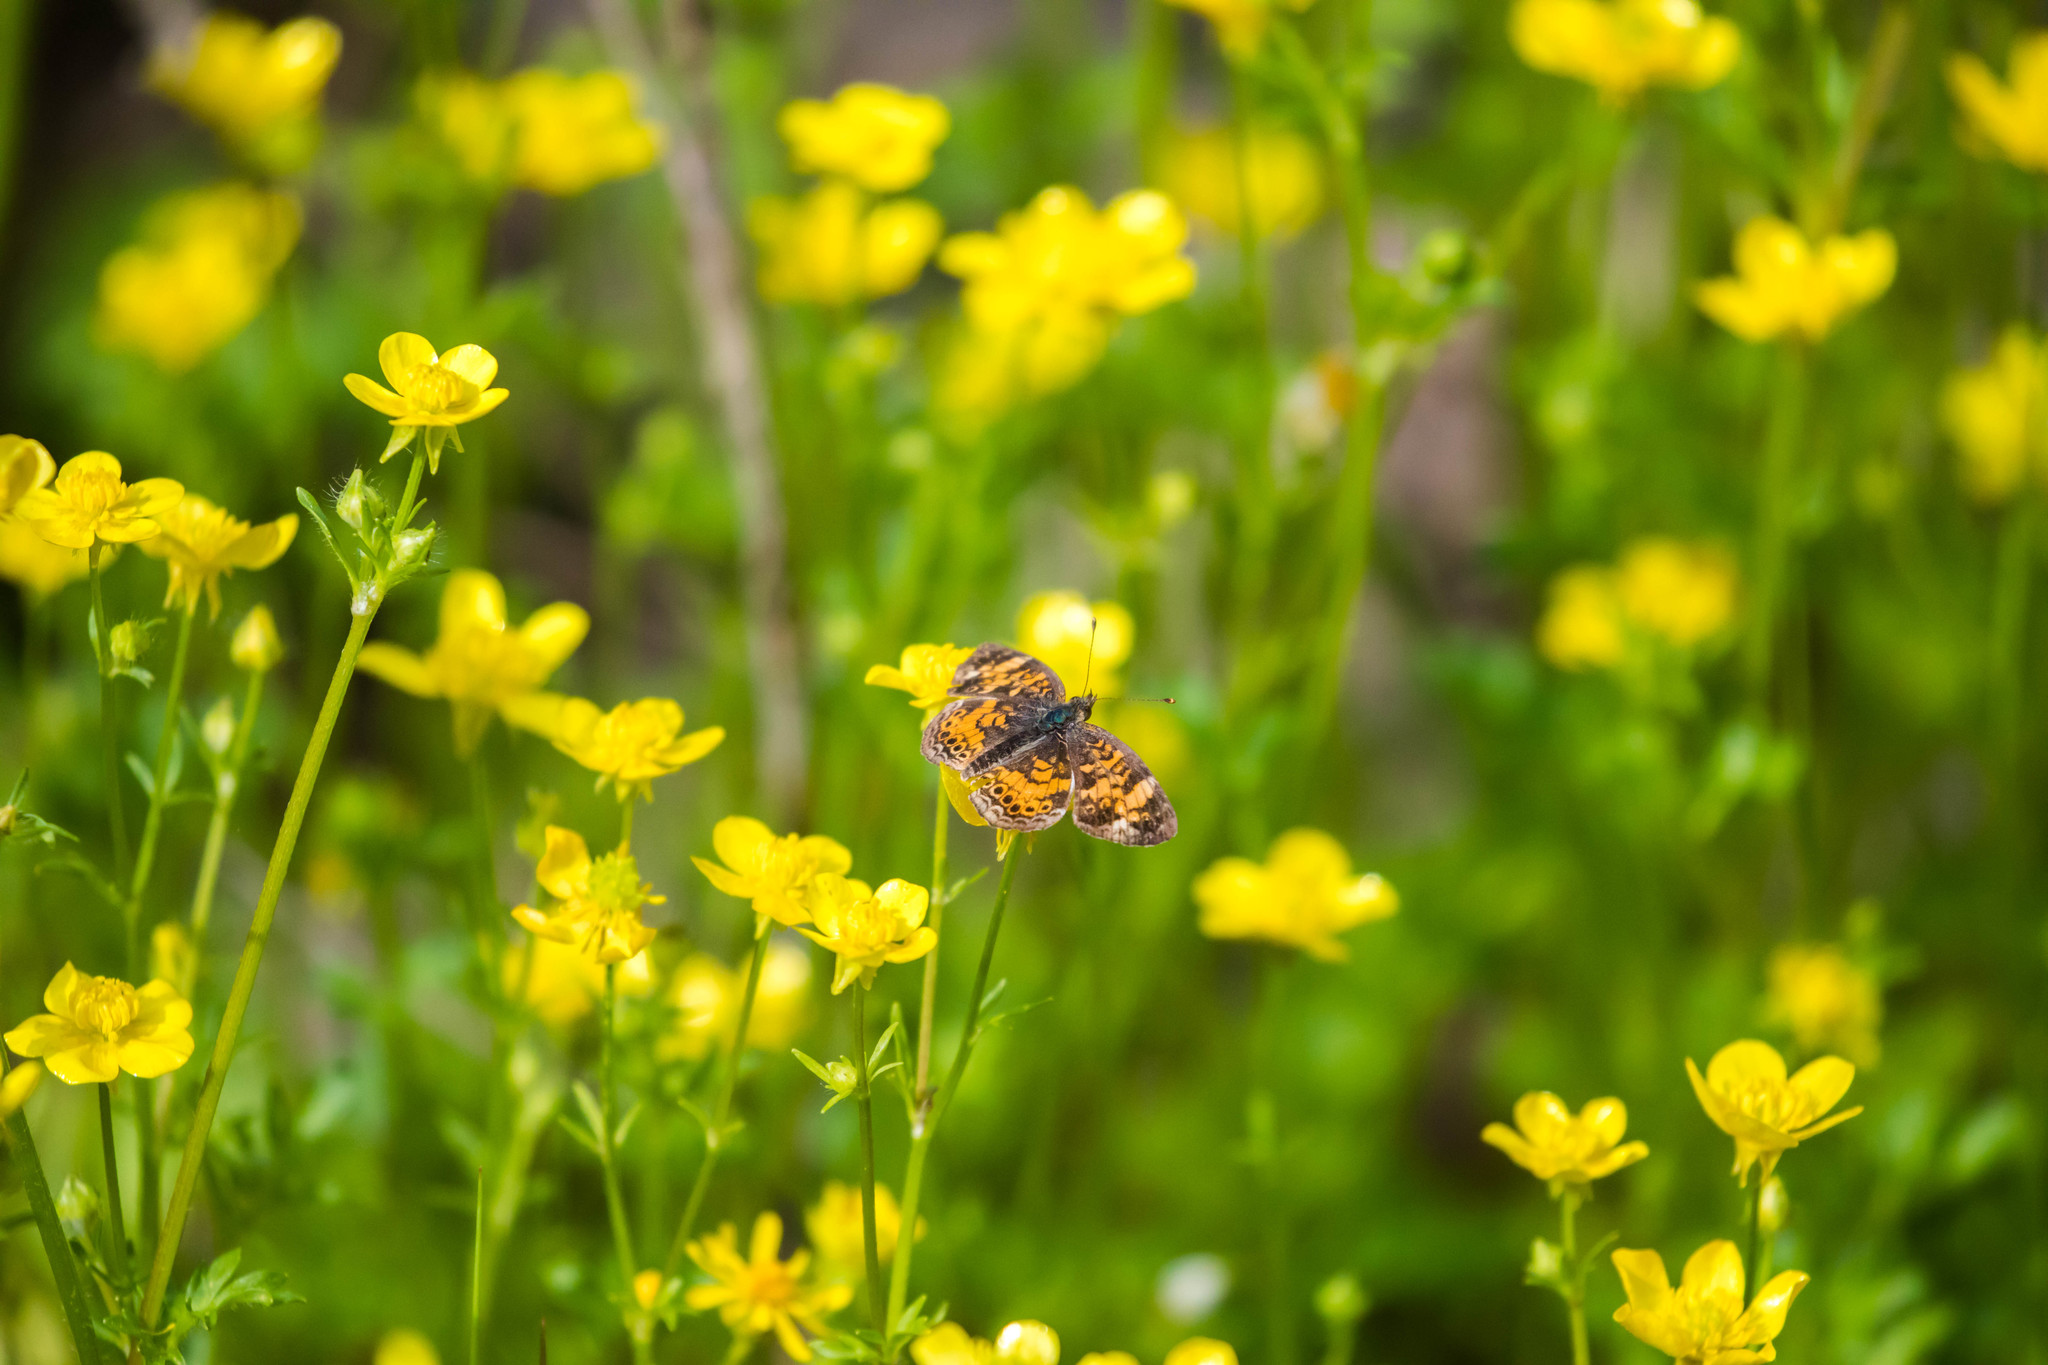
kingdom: Animalia
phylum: Arthropoda
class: Insecta
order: Lepidoptera
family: Nymphalidae
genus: Phyciodes
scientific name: Phyciodes tharos
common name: Pearl crescent
